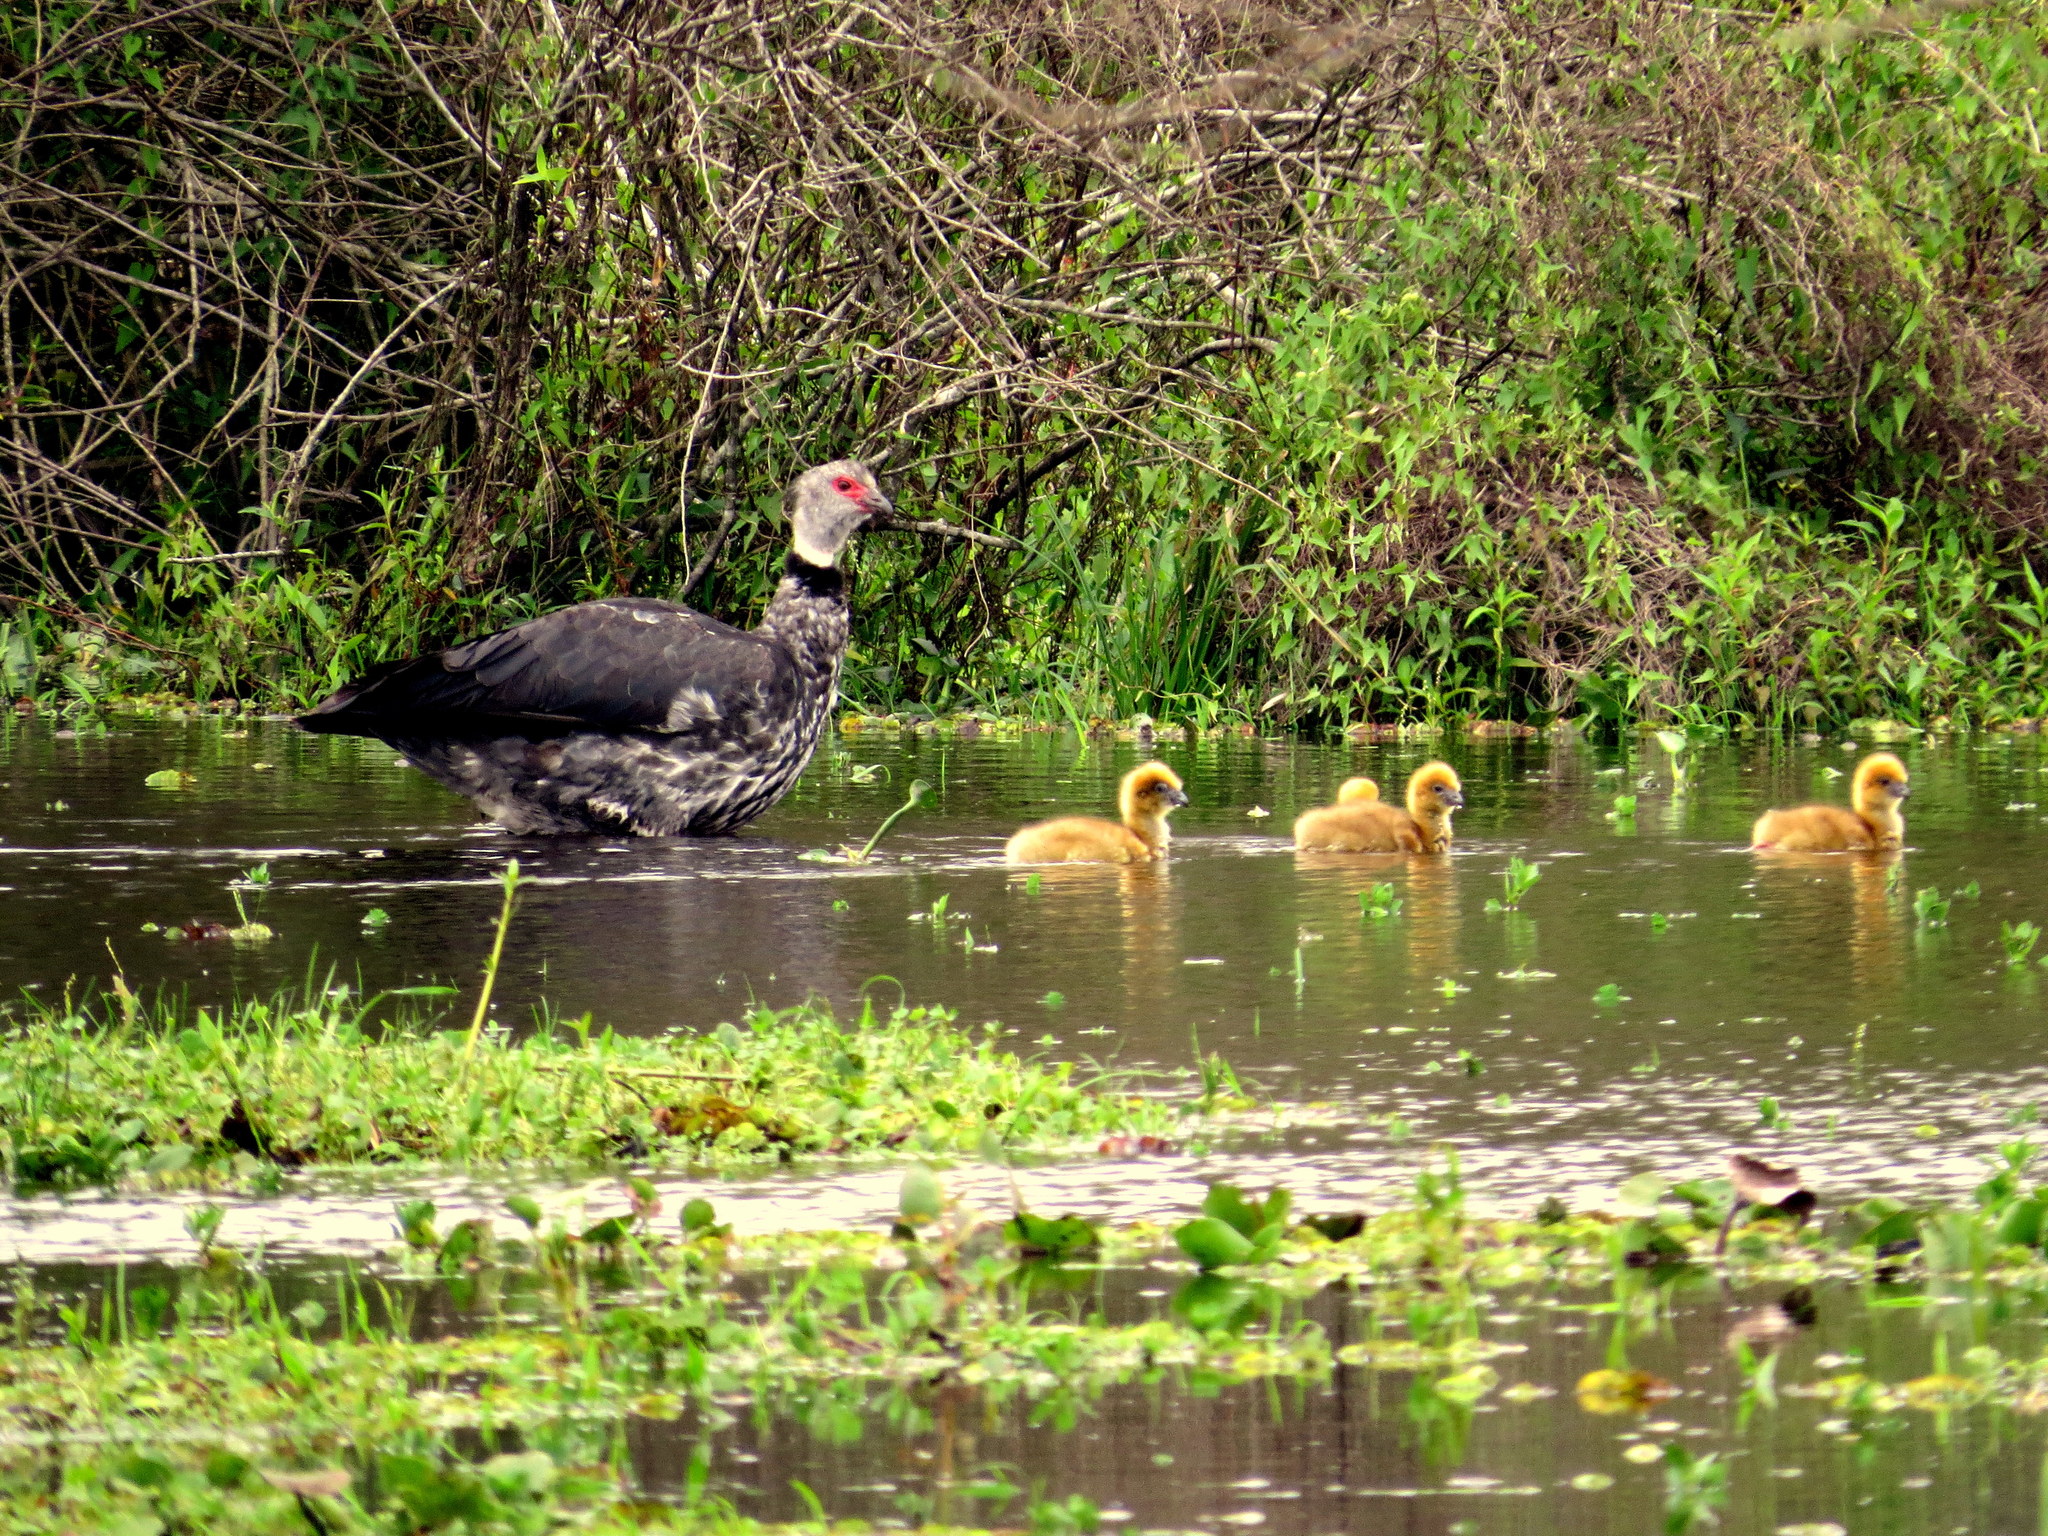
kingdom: Animalia
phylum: Chordata
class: Aves
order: Anseriformes
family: Anhimidae
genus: Chauna
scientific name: Chauna torquata
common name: Southern screamer
